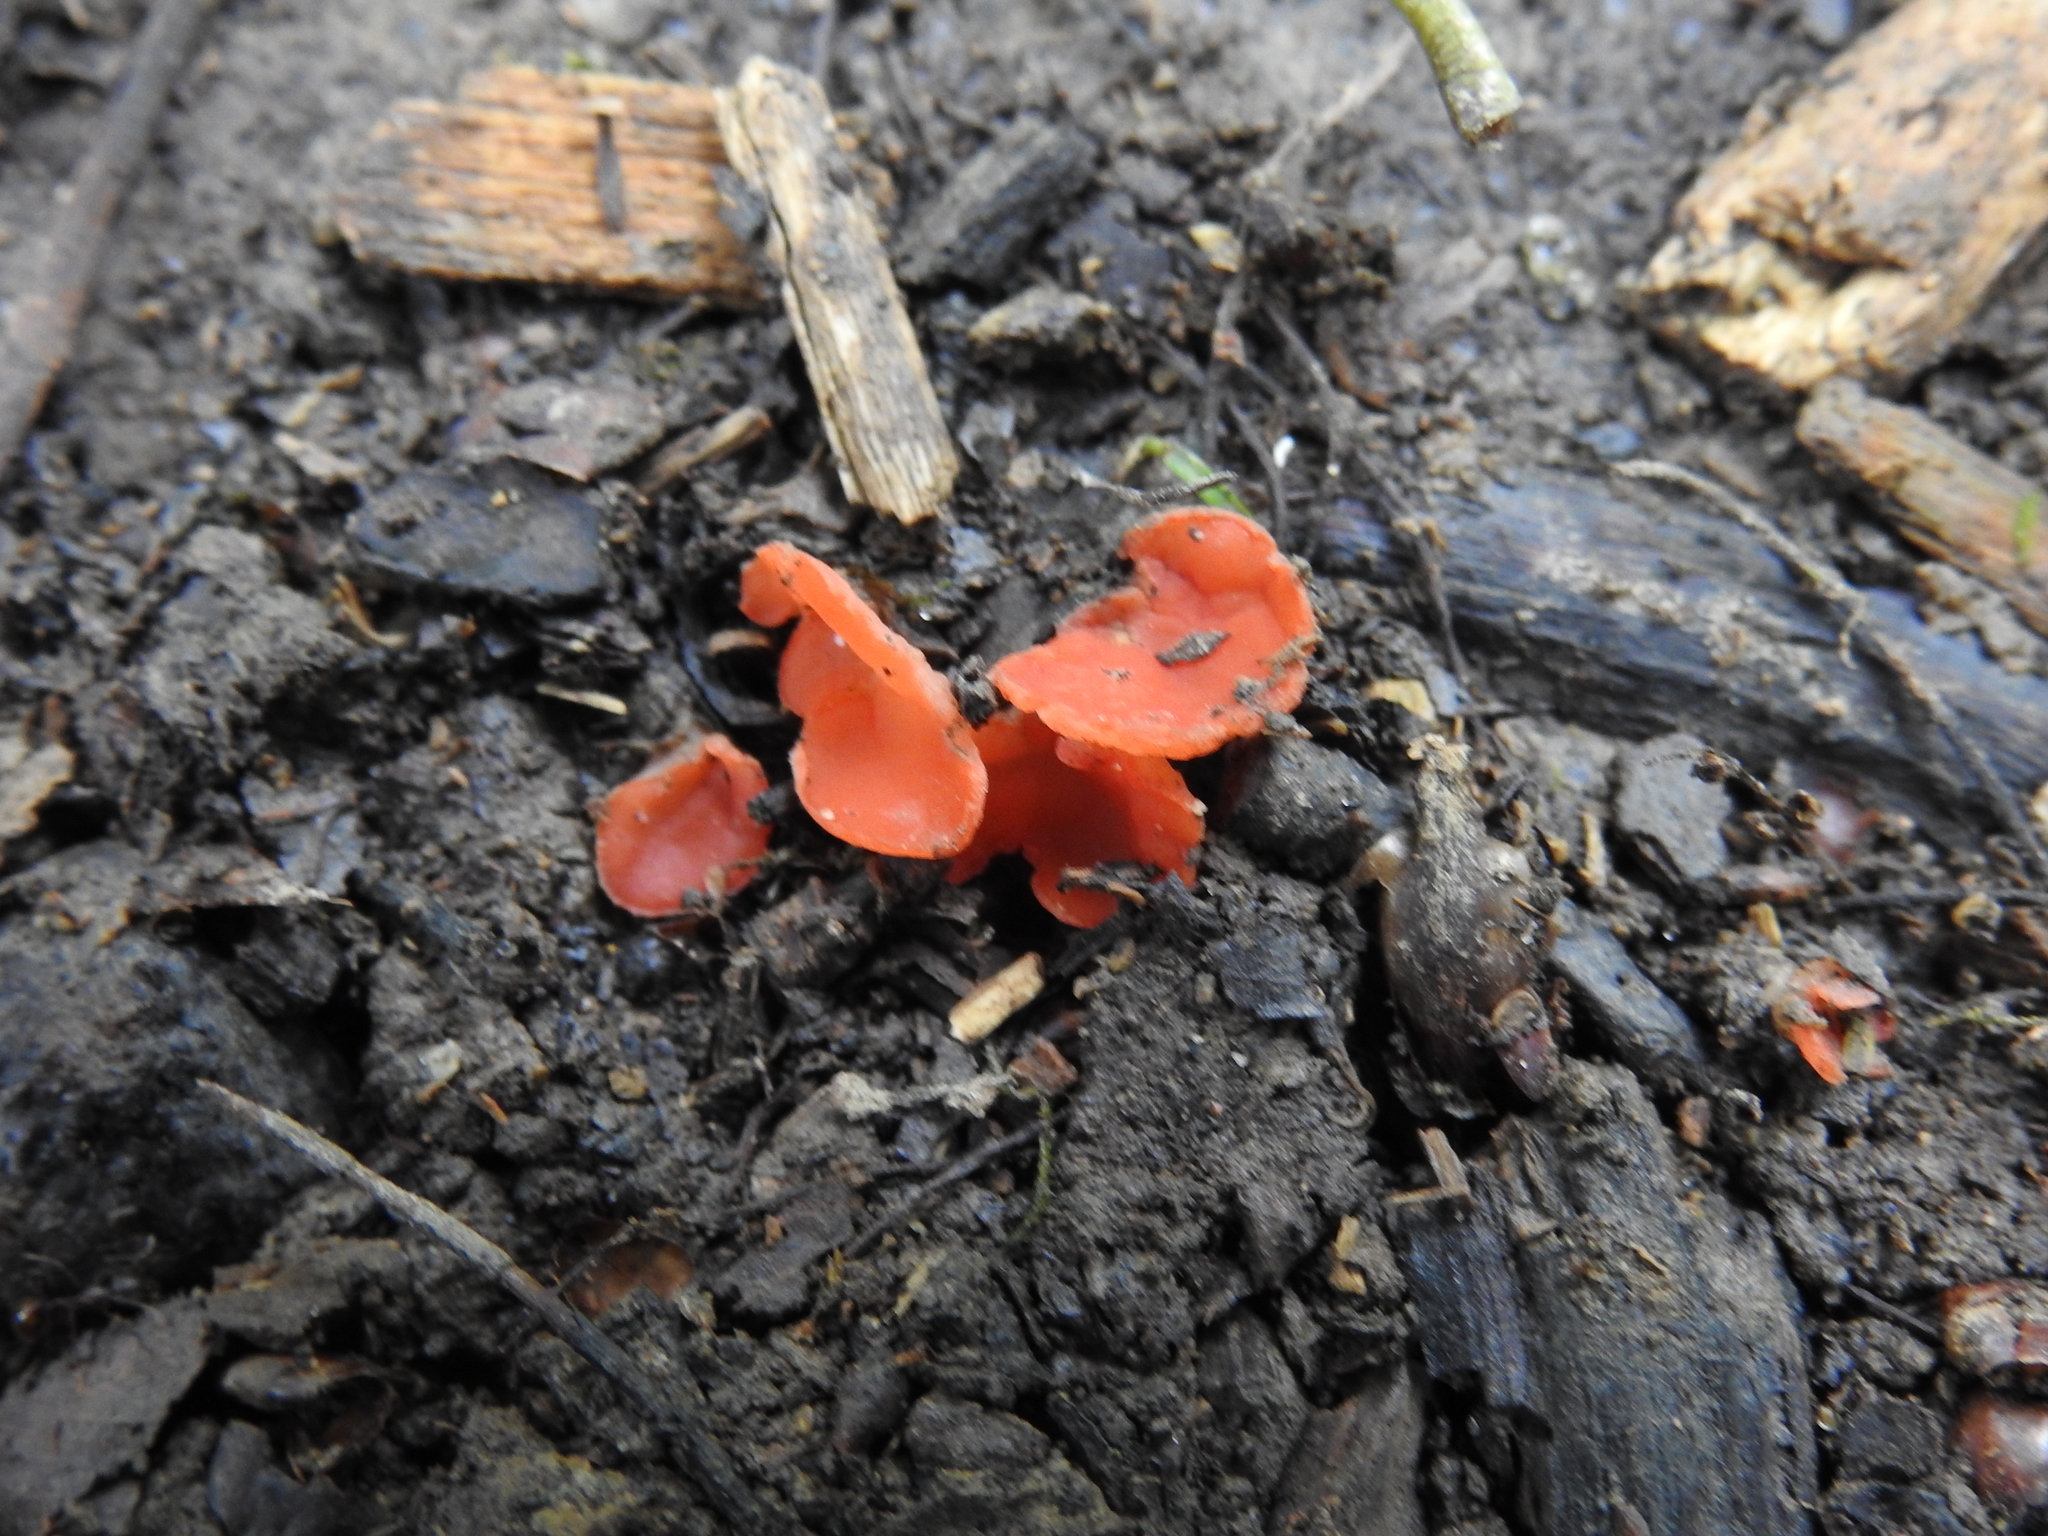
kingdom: Fungi
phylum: Ascomycota
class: Pezizomycetes
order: Pezizales
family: Sarcoscyphaceae
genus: Sarcoscypha
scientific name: Sarcoscypha occidentalis
